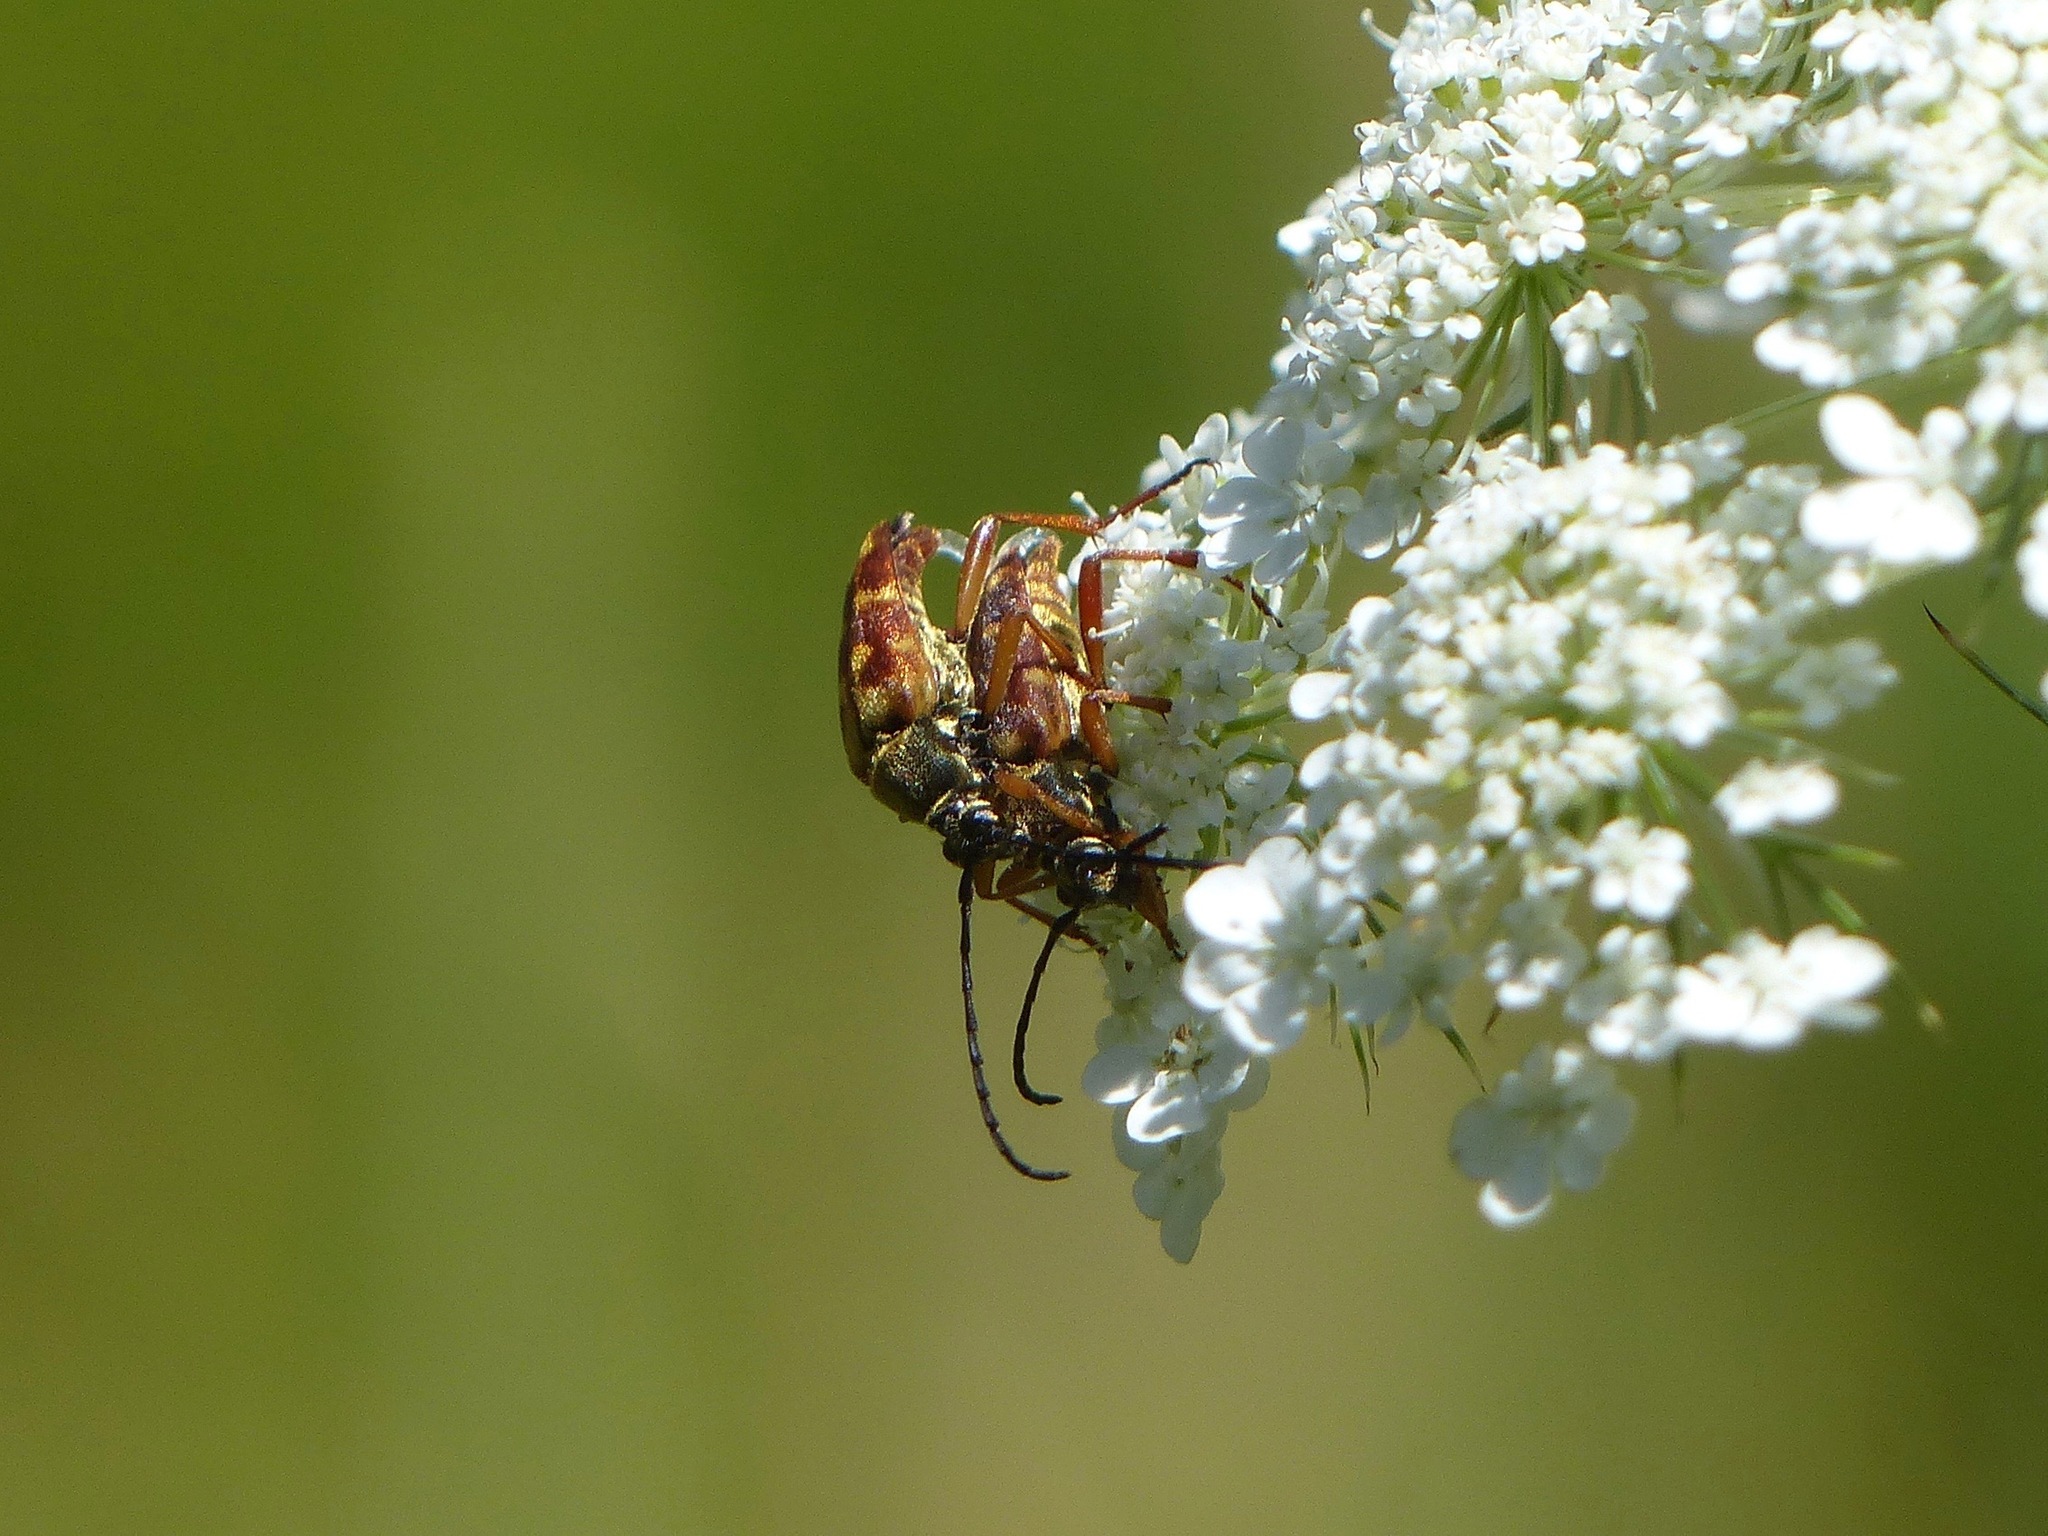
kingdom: Animalia
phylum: Arthropoda
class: Insecta
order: Coleoptera
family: Cerambycidae
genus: Typocerus
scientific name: Typocerus velutinus
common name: Banded longhorn beetle
